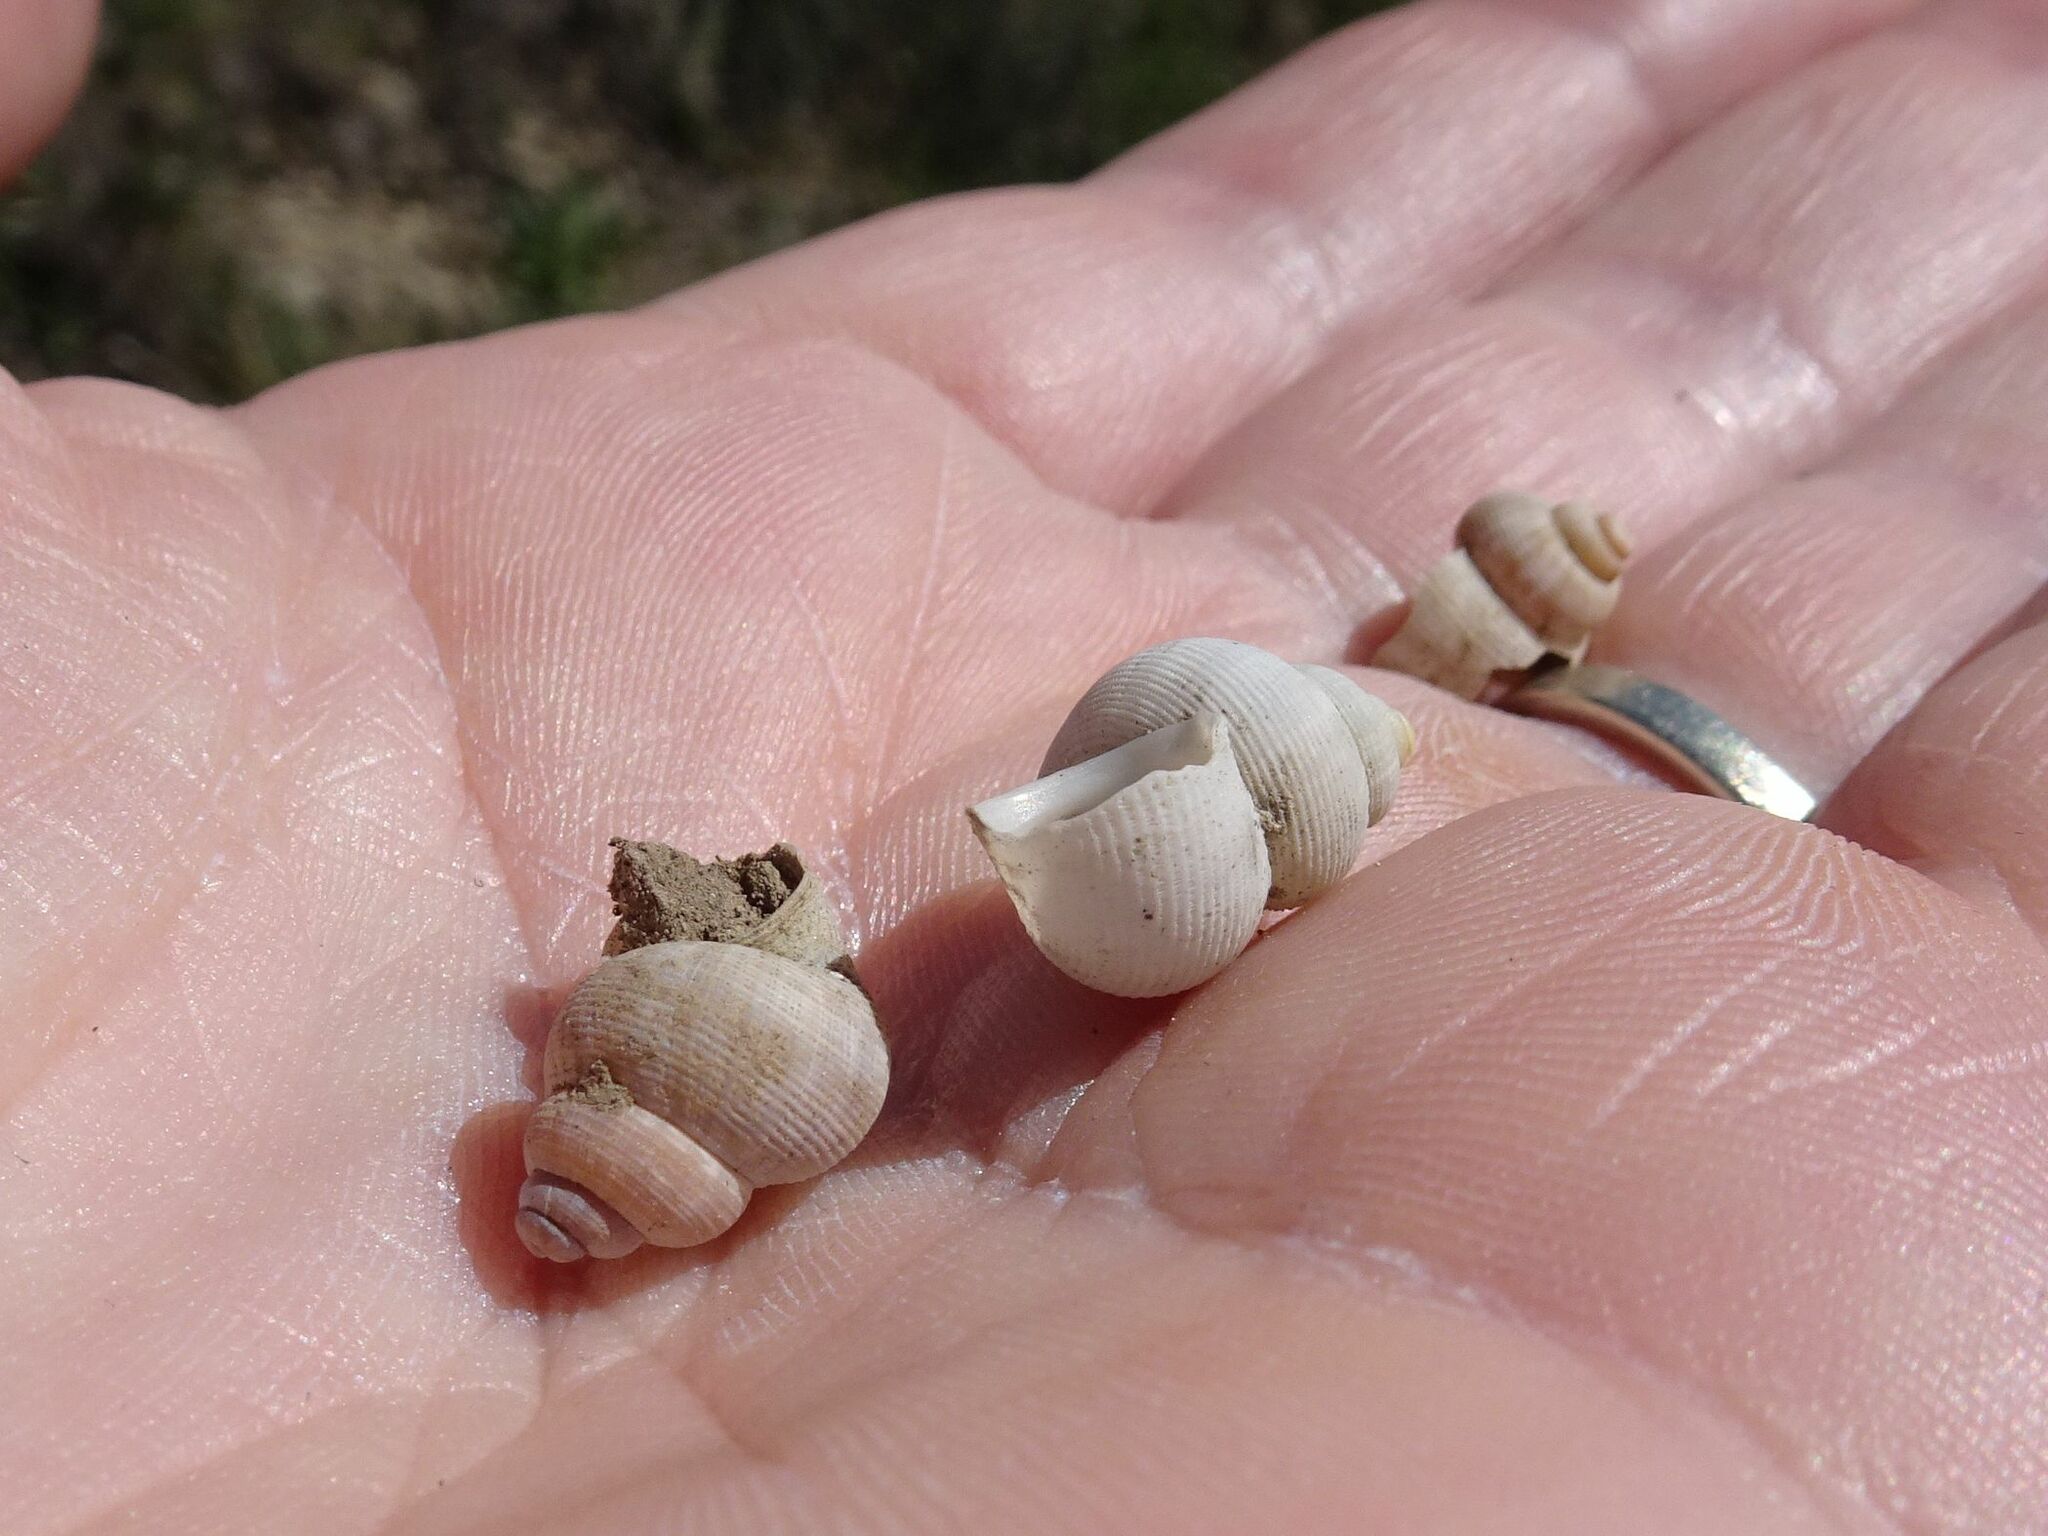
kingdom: Animalia
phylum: Mollusca
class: Gastropoda
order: Littorinimorpha
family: Pomatiidae
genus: Pomatias
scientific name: Pomatias elegans
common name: Red-mouthed snail
